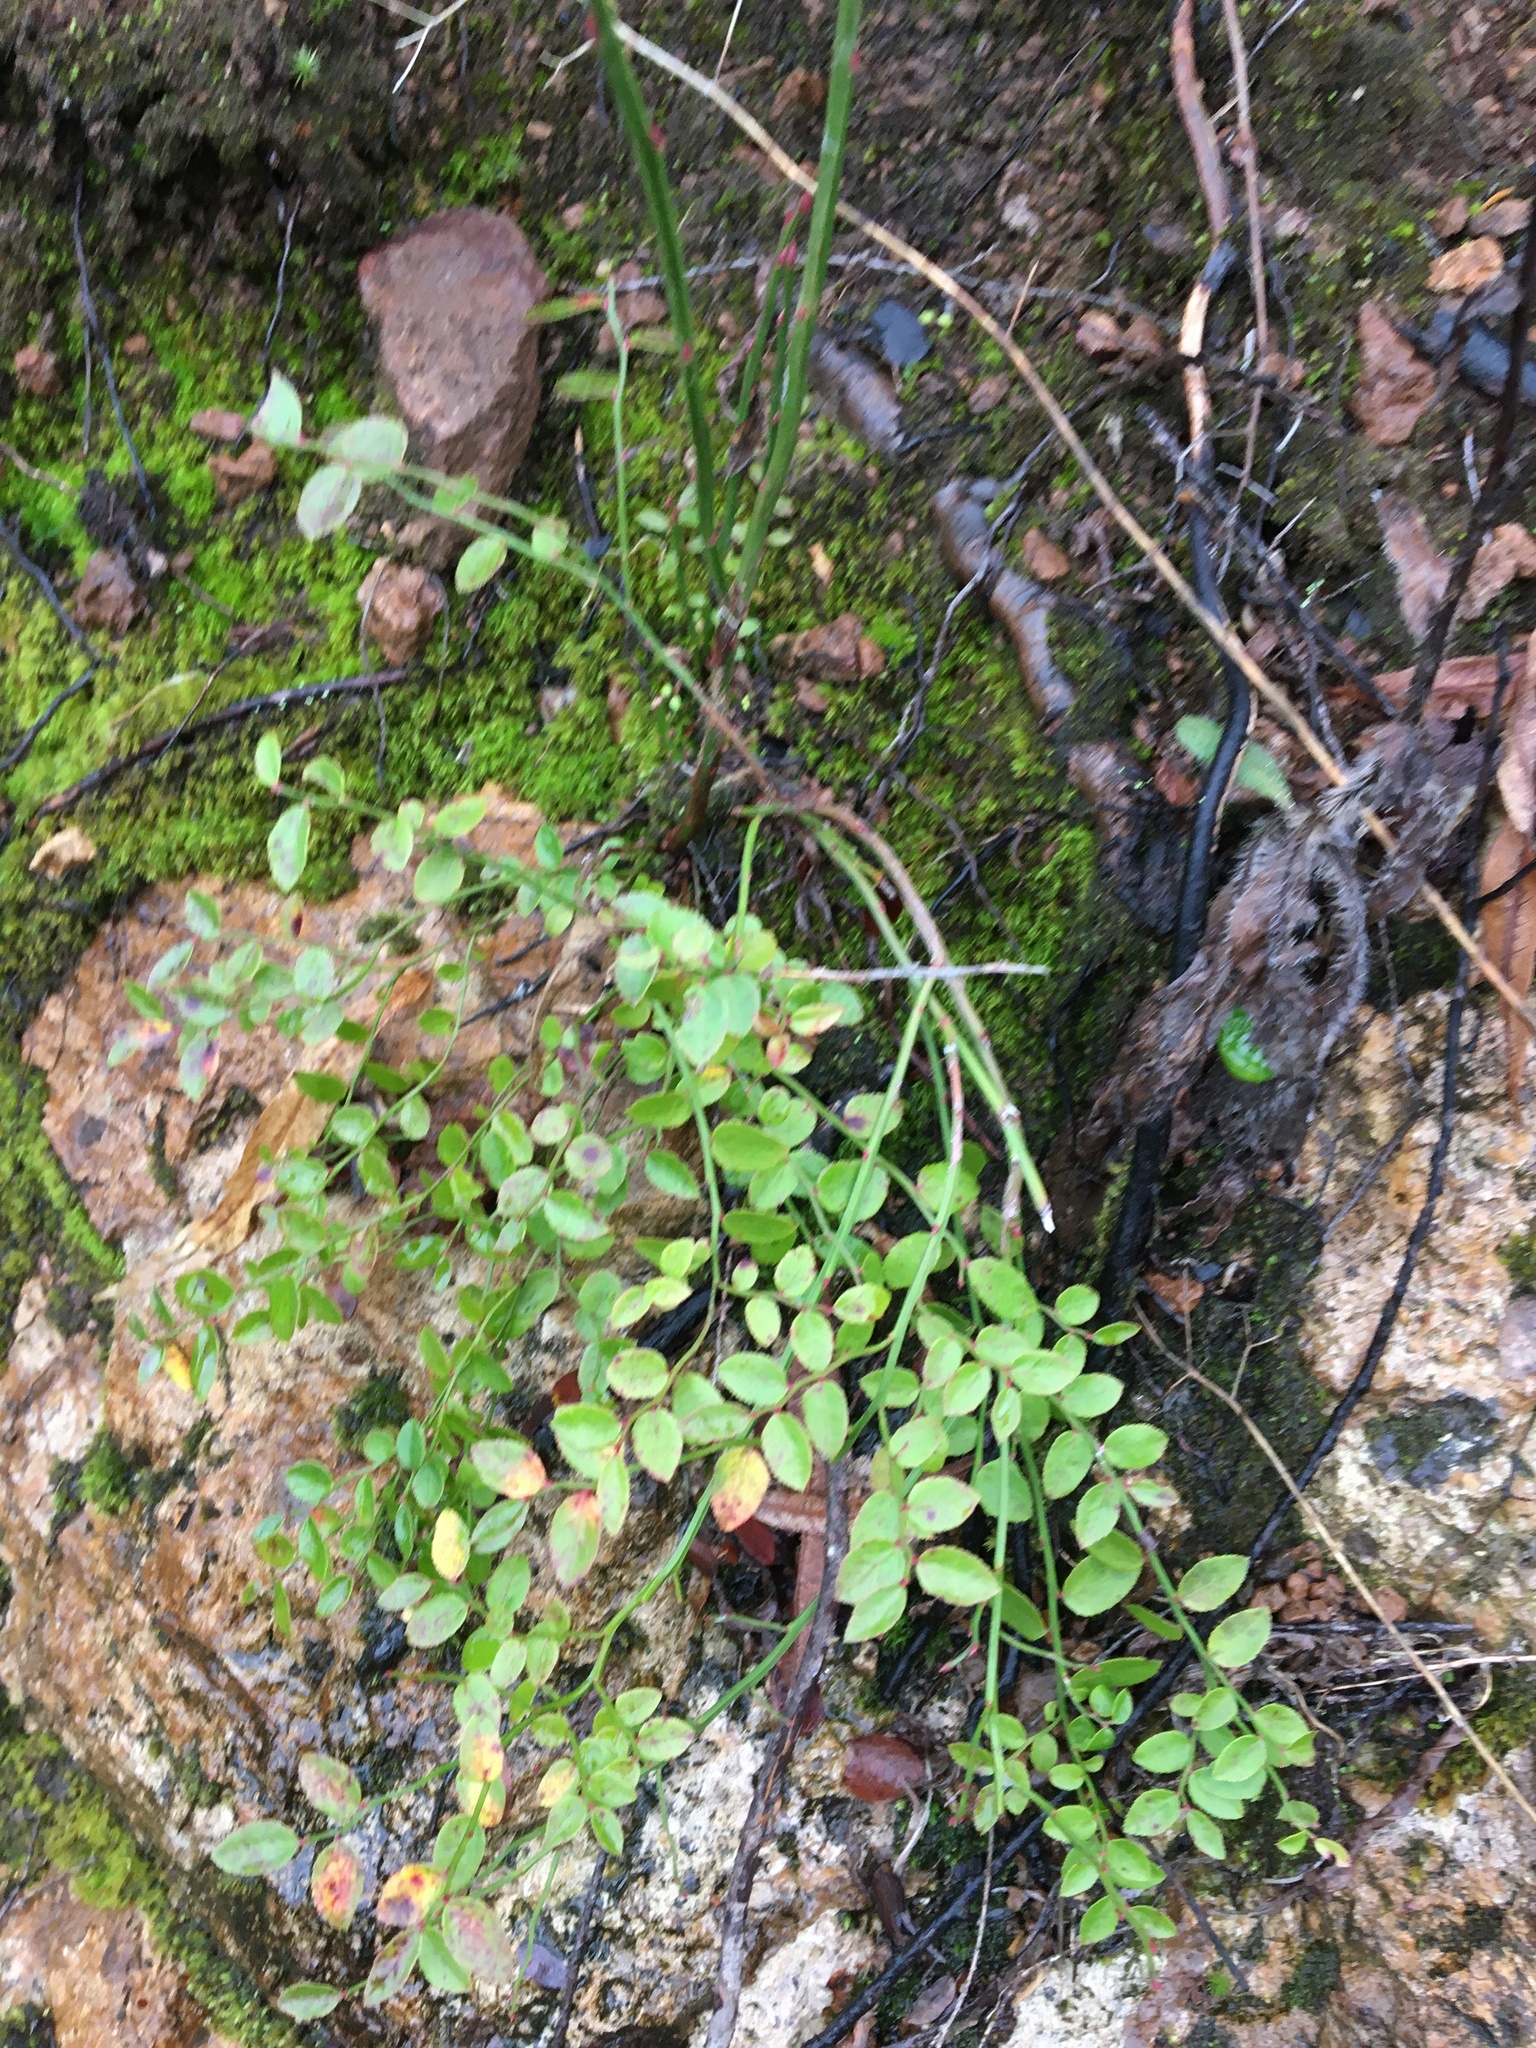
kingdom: Plantae
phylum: Tracheophyta
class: Magnoliopsida
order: Ericales
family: Ericaceae
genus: Vaccinium
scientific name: Vaccinium parvifolium
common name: Red-huckleberry
